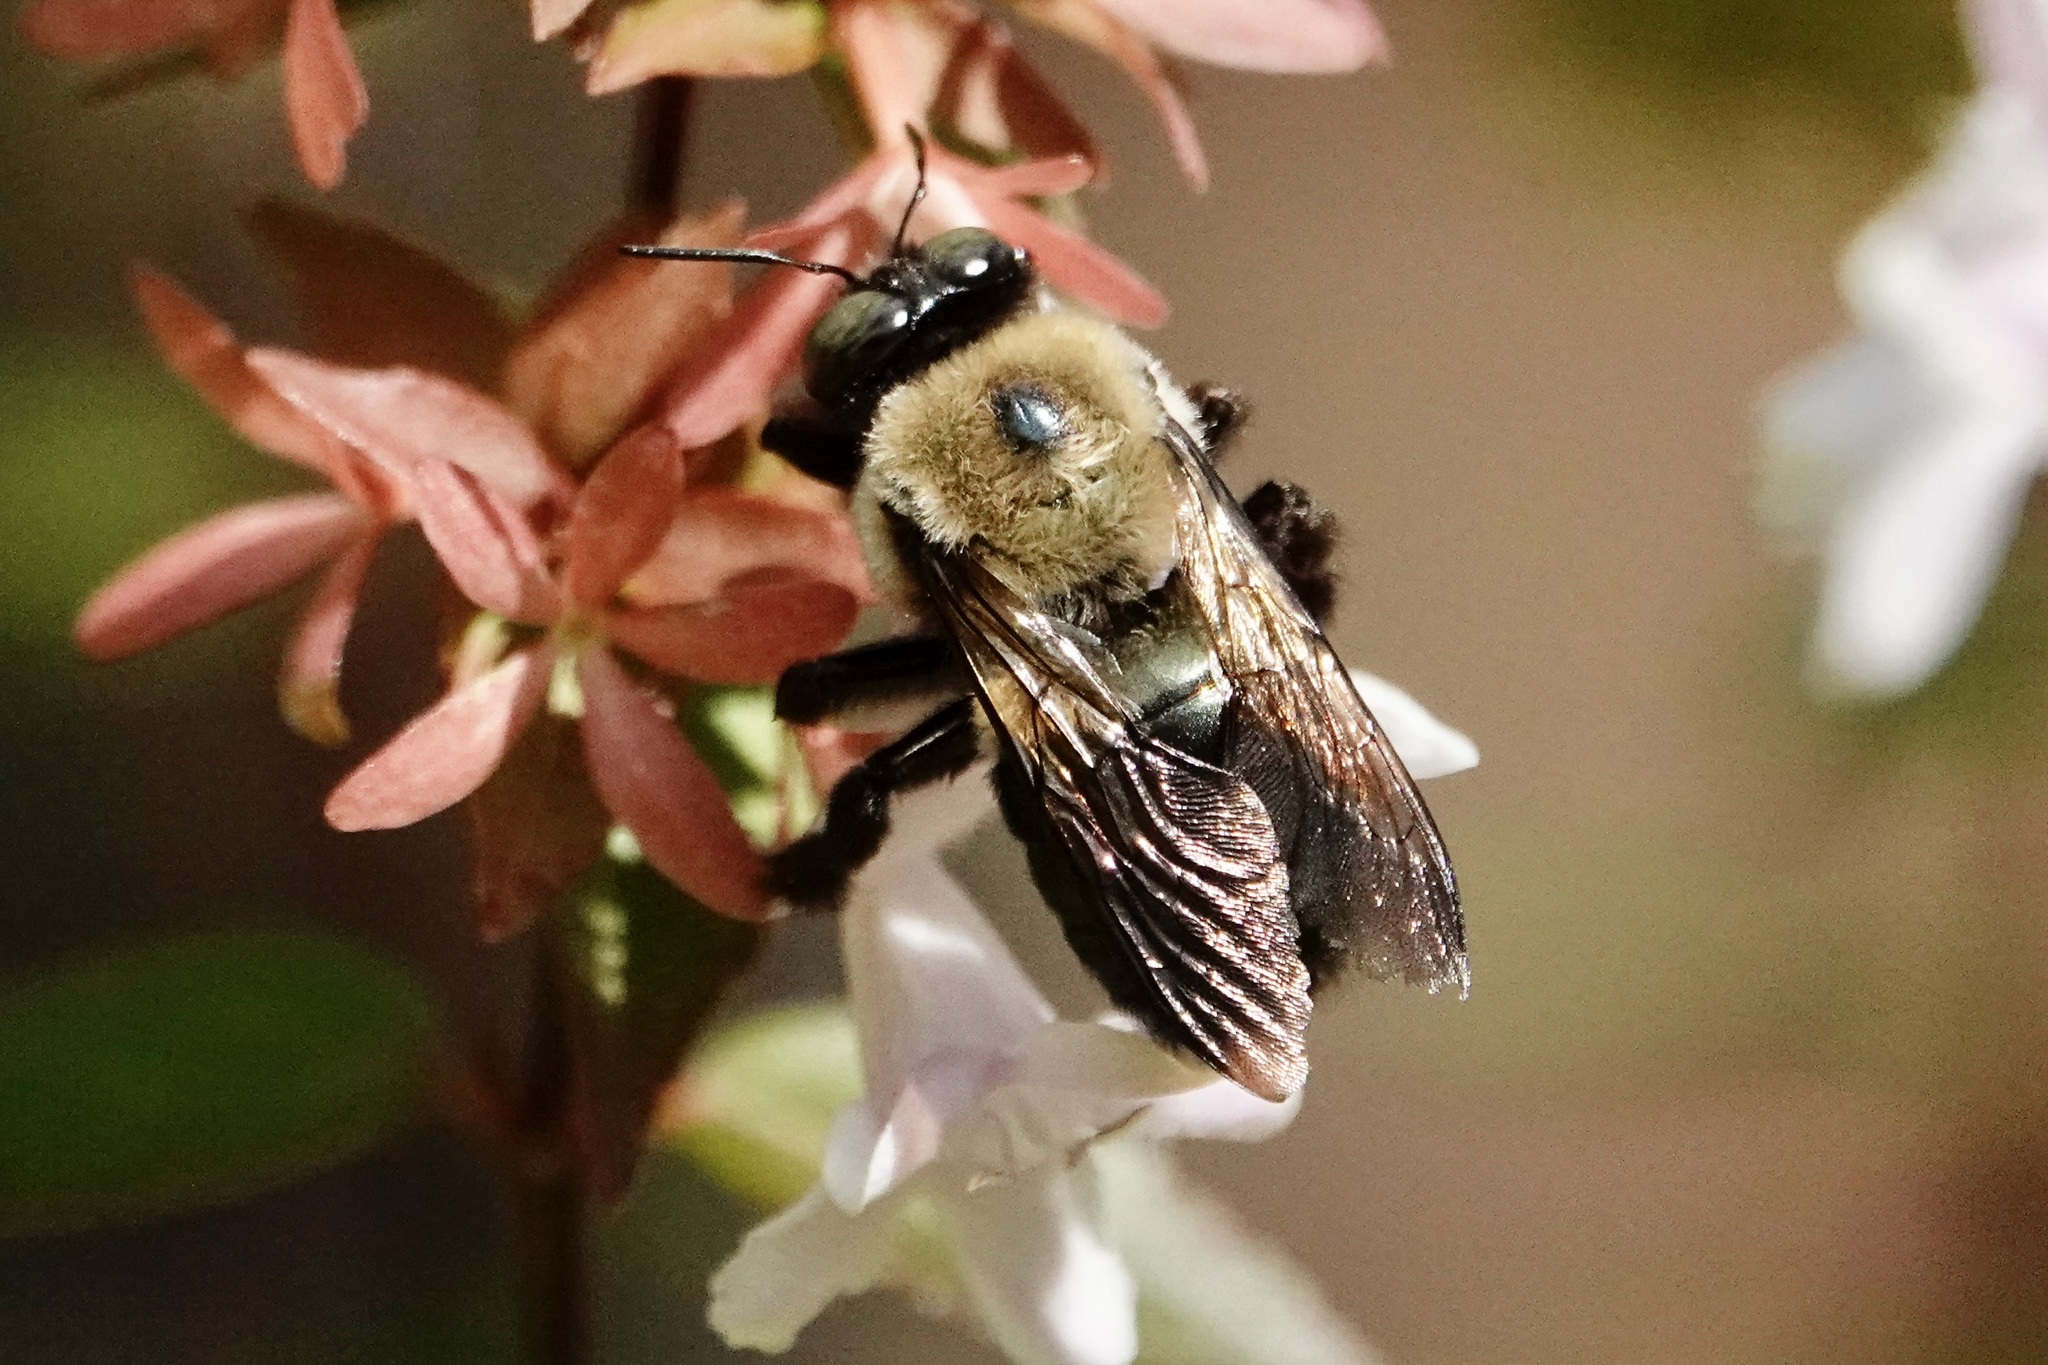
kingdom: Animalia
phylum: Arthropoda
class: Insecta
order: Hymenoptera
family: Apidae
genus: Xylocopa
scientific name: Xylocopa virginica
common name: Carpenter bee
